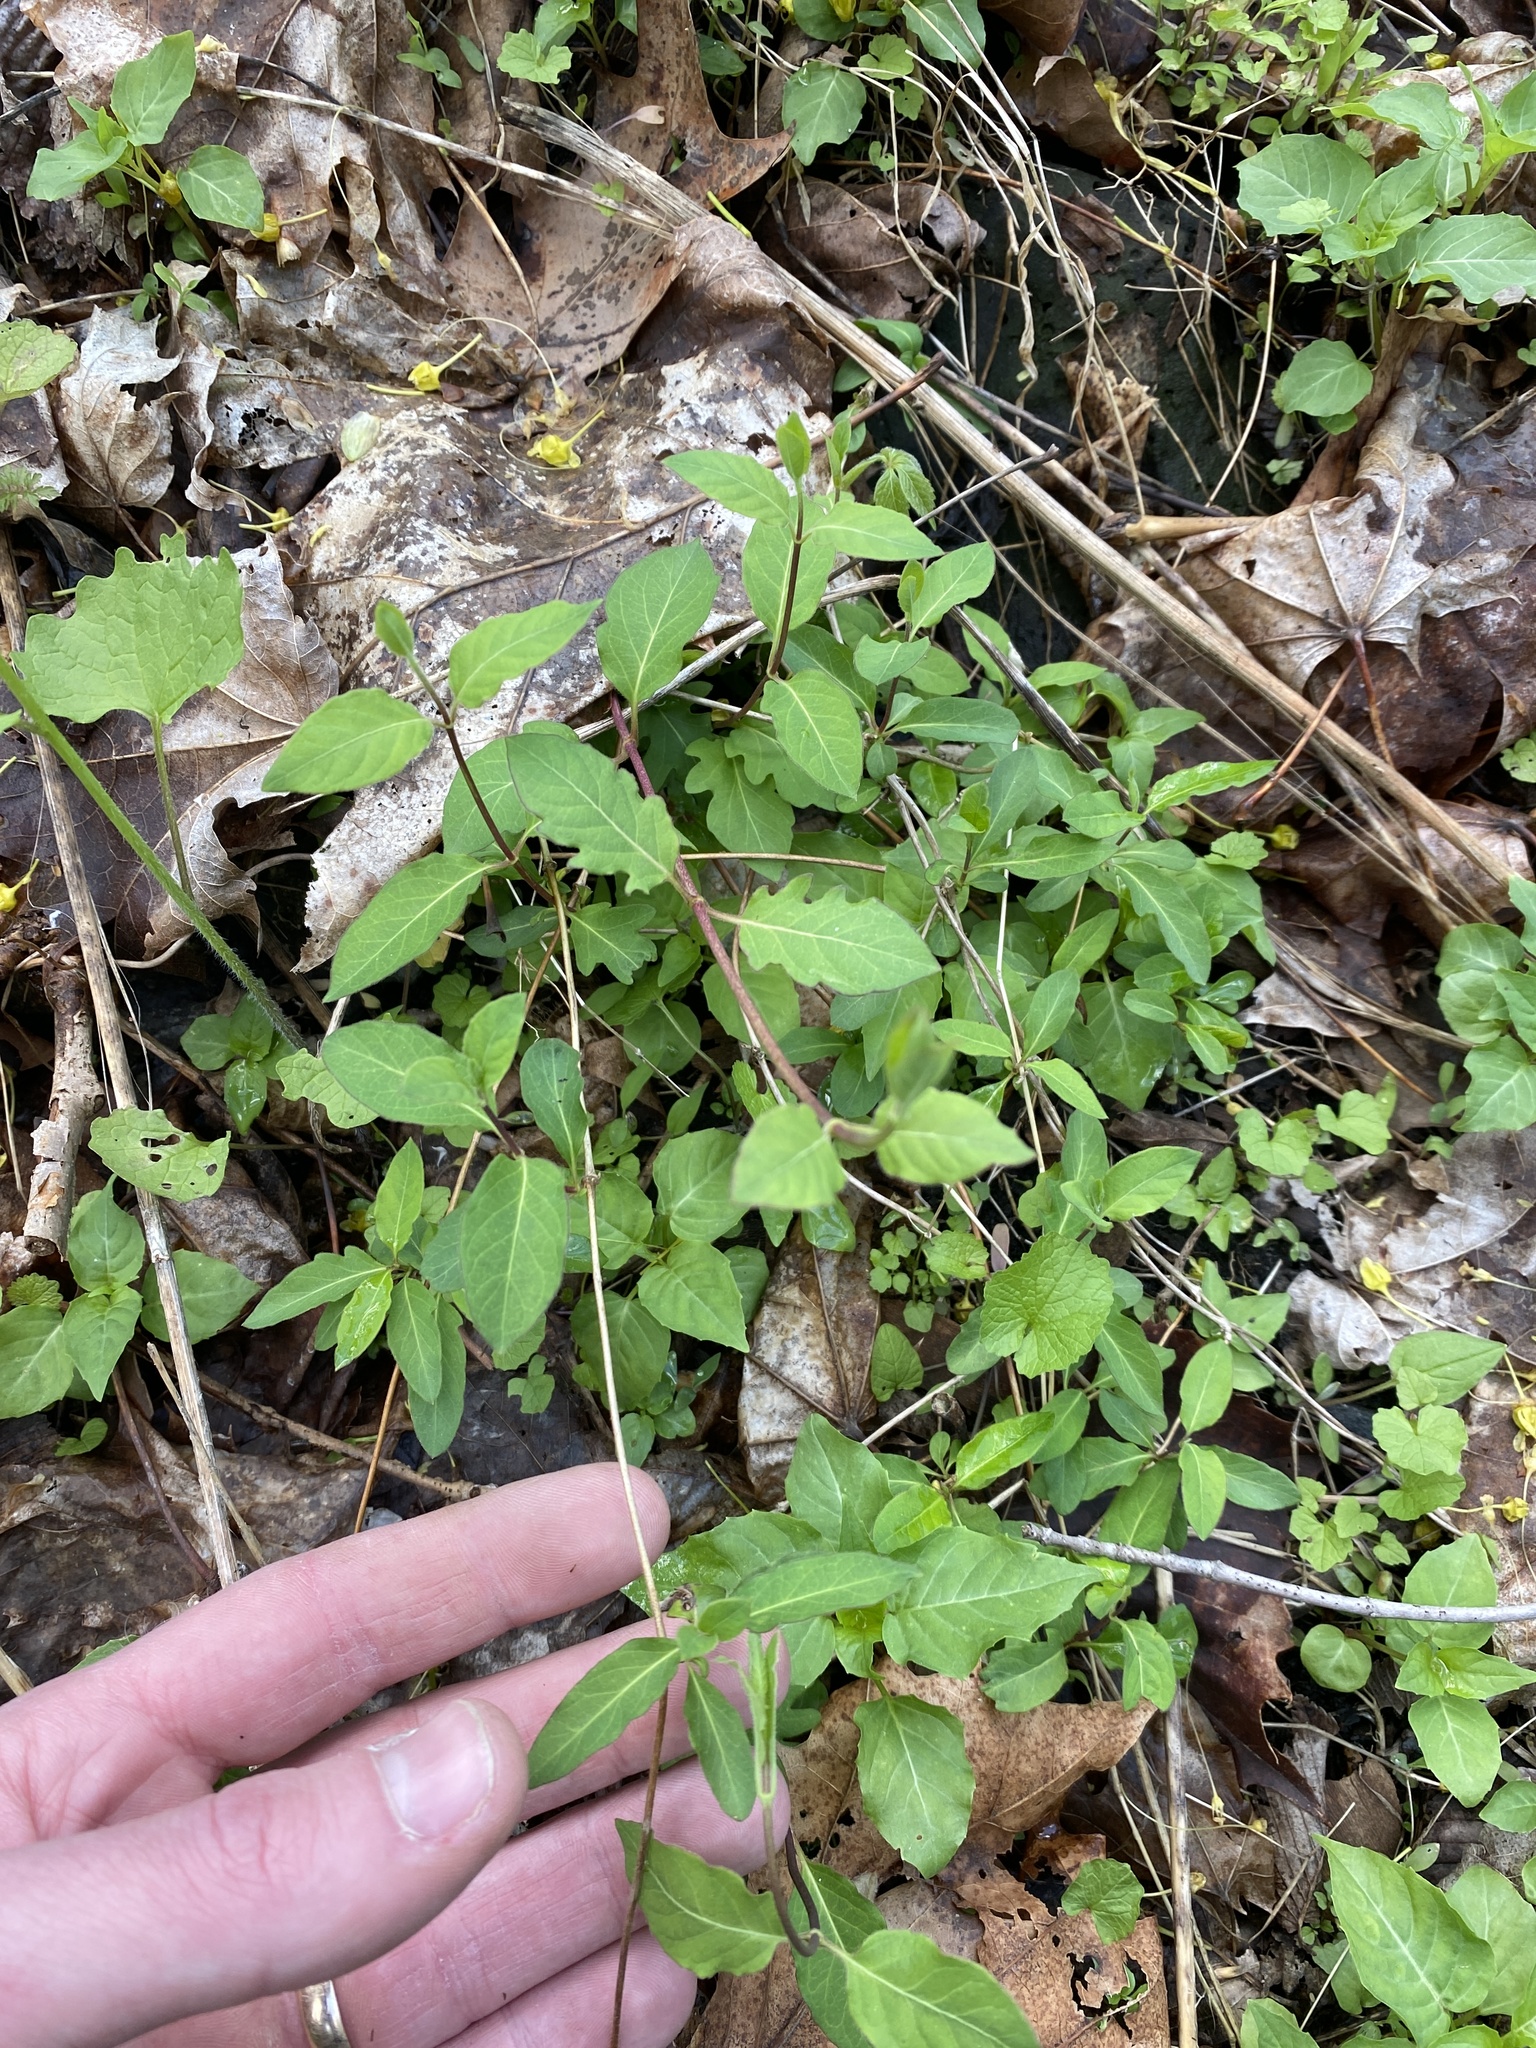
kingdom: Plantae
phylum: Tracheophyta
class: Magnoliopsida
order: Dipsacales
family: Caprifoliaceae
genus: Lonicera
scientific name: Lonicera japonica
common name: Japanese honeysuckle
